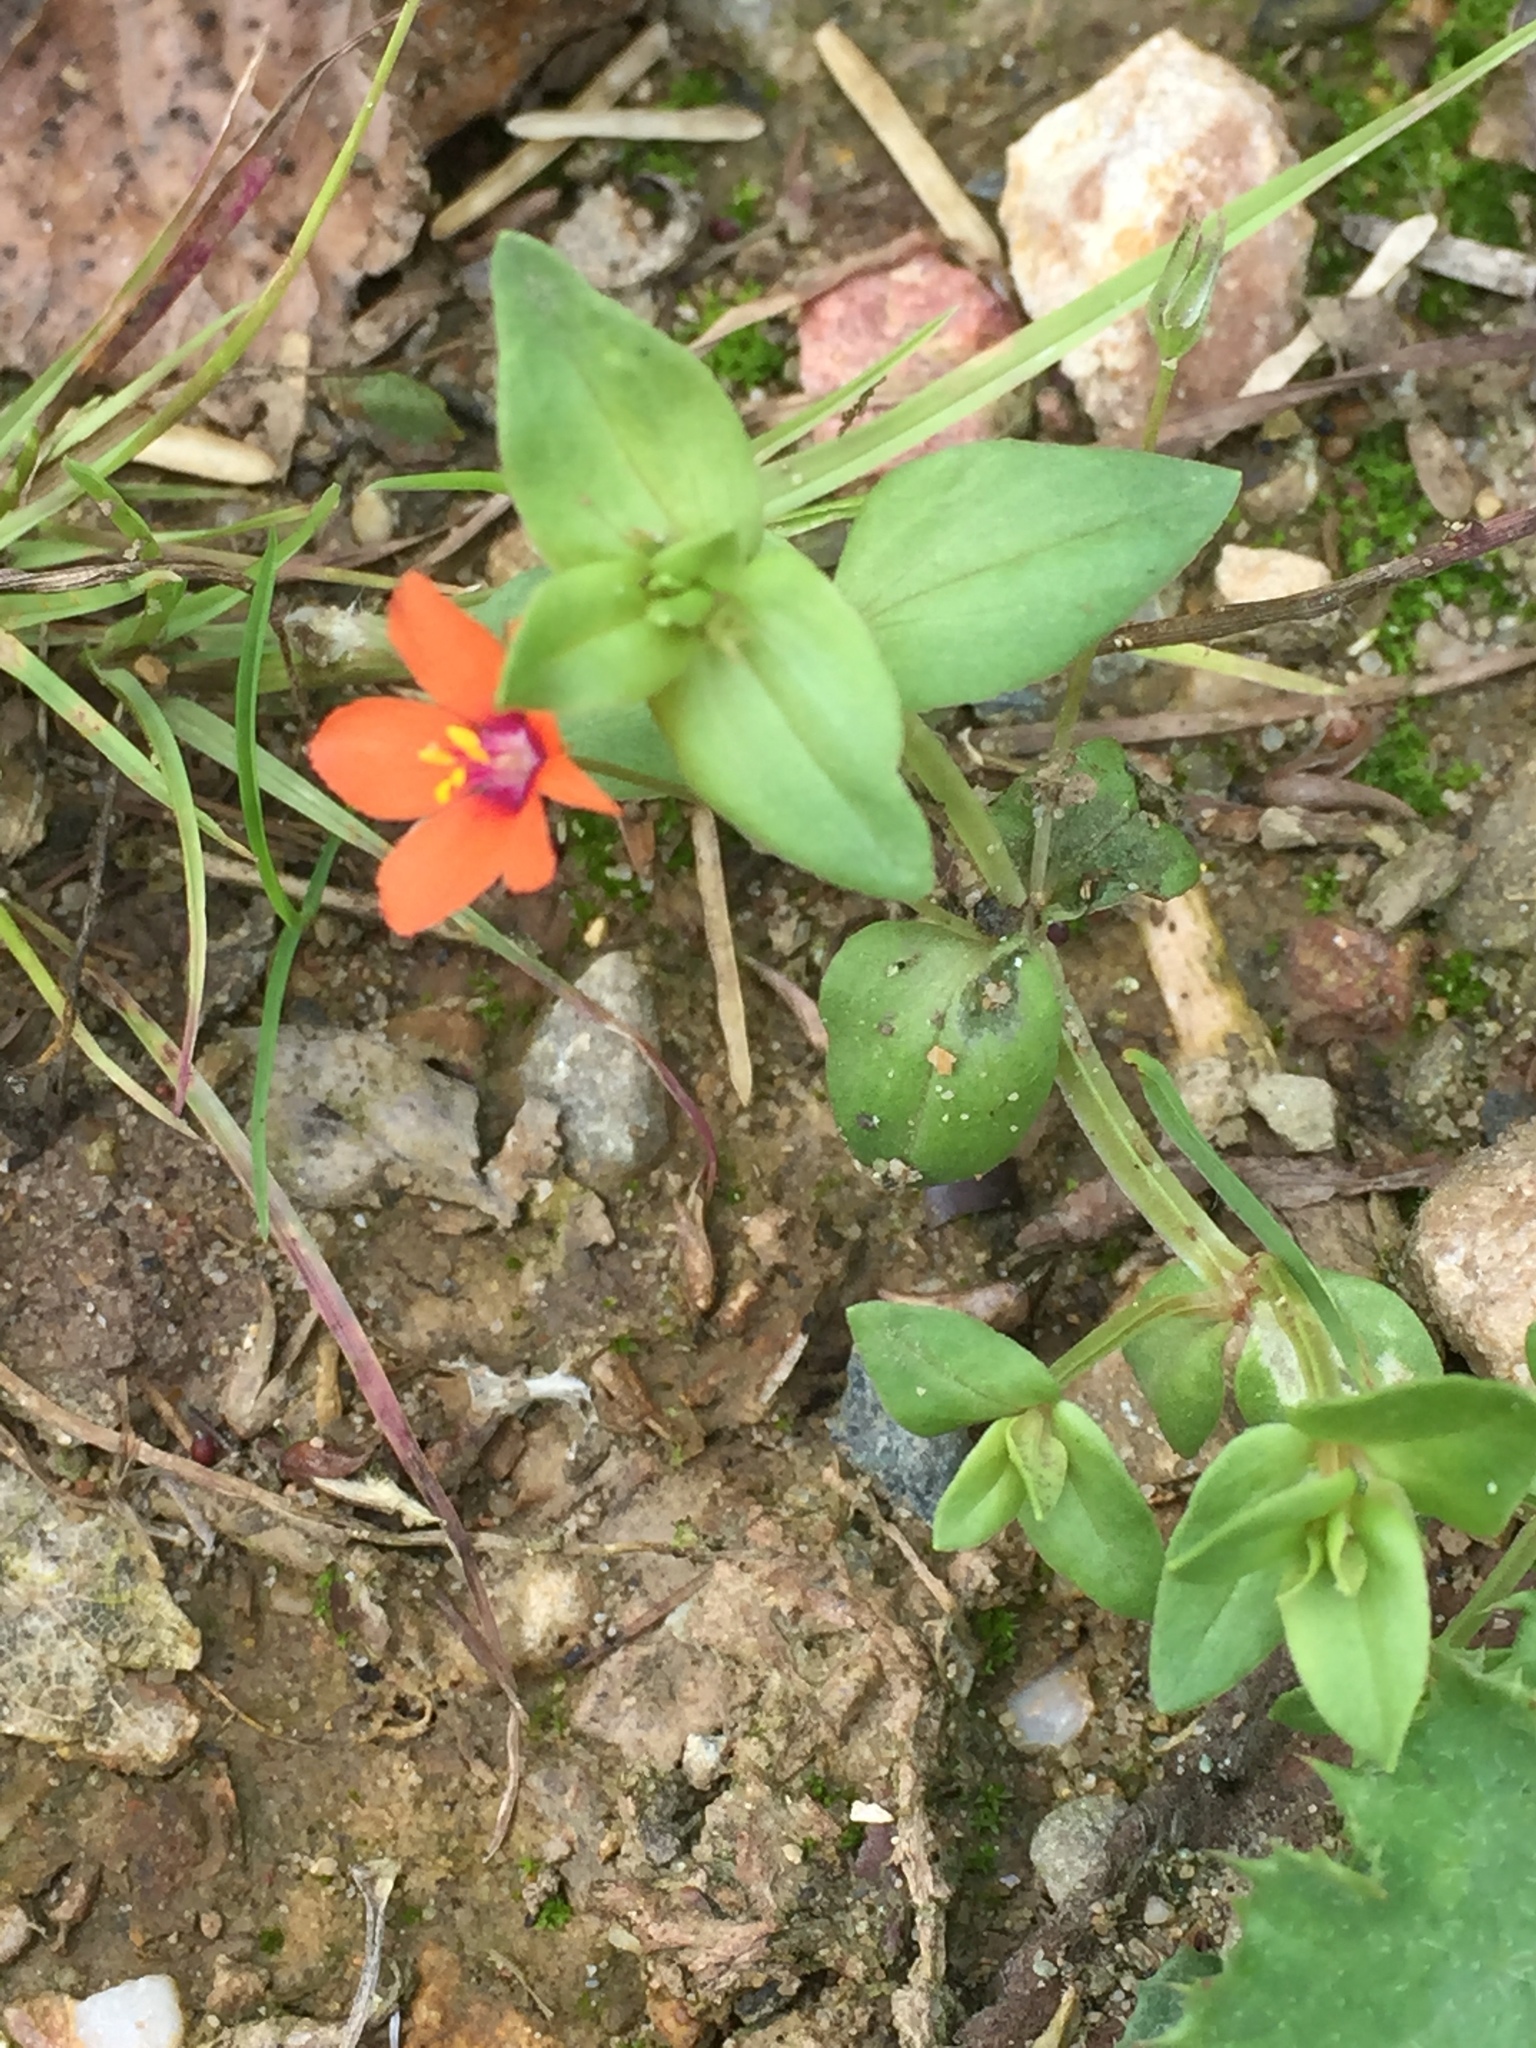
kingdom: Plantae
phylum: Tracheophyta
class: Magnoliopsida
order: Ericales
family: Primulaceae
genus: Lysimachia
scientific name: Lysimachia arvensis
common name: Scarlet pimpernel
